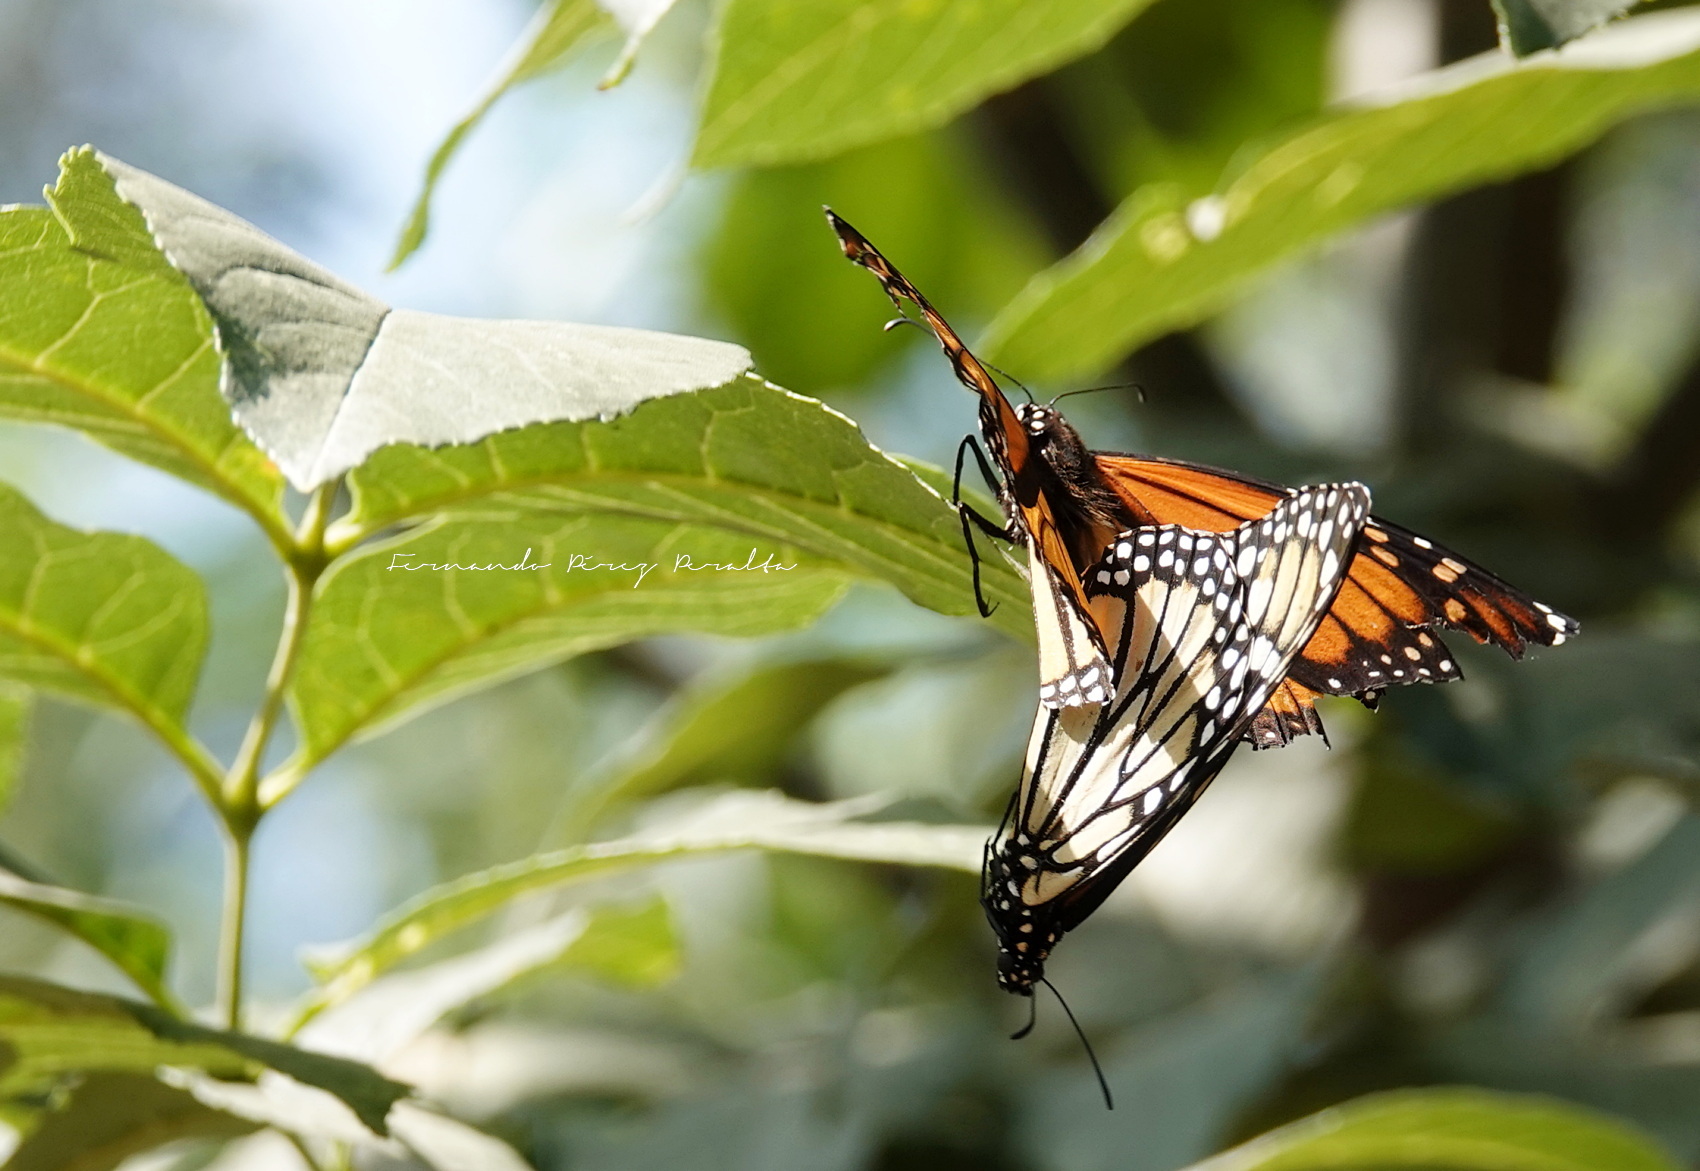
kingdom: Animalia
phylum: Arthropoda
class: Insecta
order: Lepidoptera
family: Nymphalidae
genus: Danaus
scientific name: Danaus plexippus
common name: Monarch
